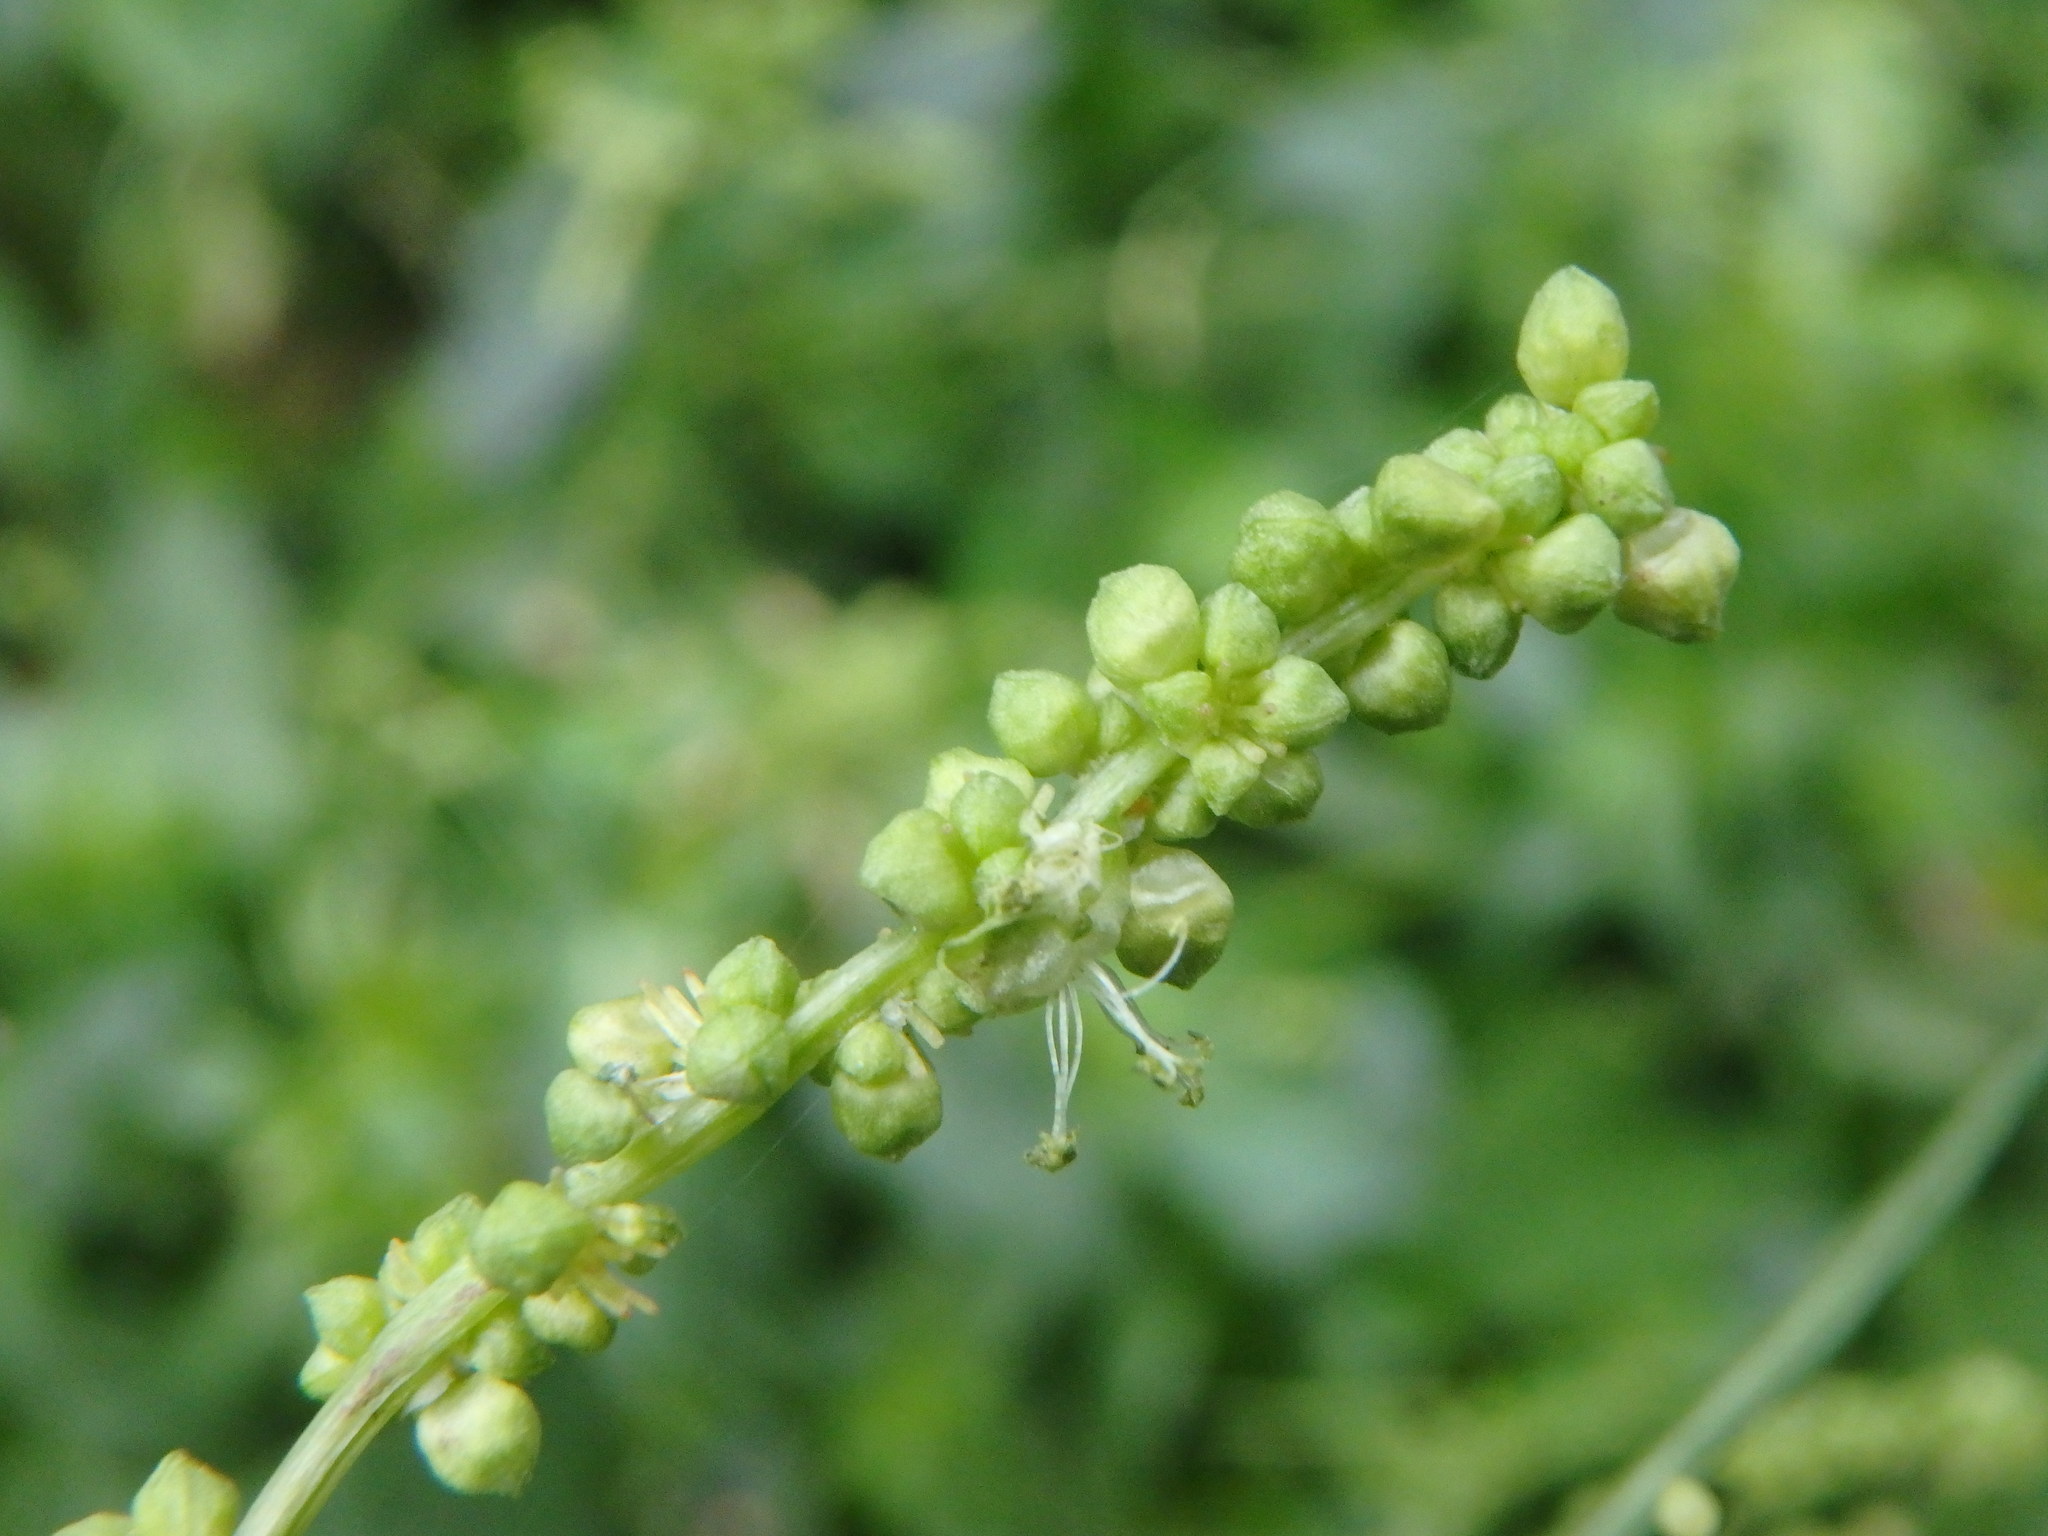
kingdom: Plantae
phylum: Tracheophyta
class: Magnoliopsida
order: Malpighiales
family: Euphorbiaceae
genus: Mercurialis
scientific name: Mercurialis annua
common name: Annual mercury
